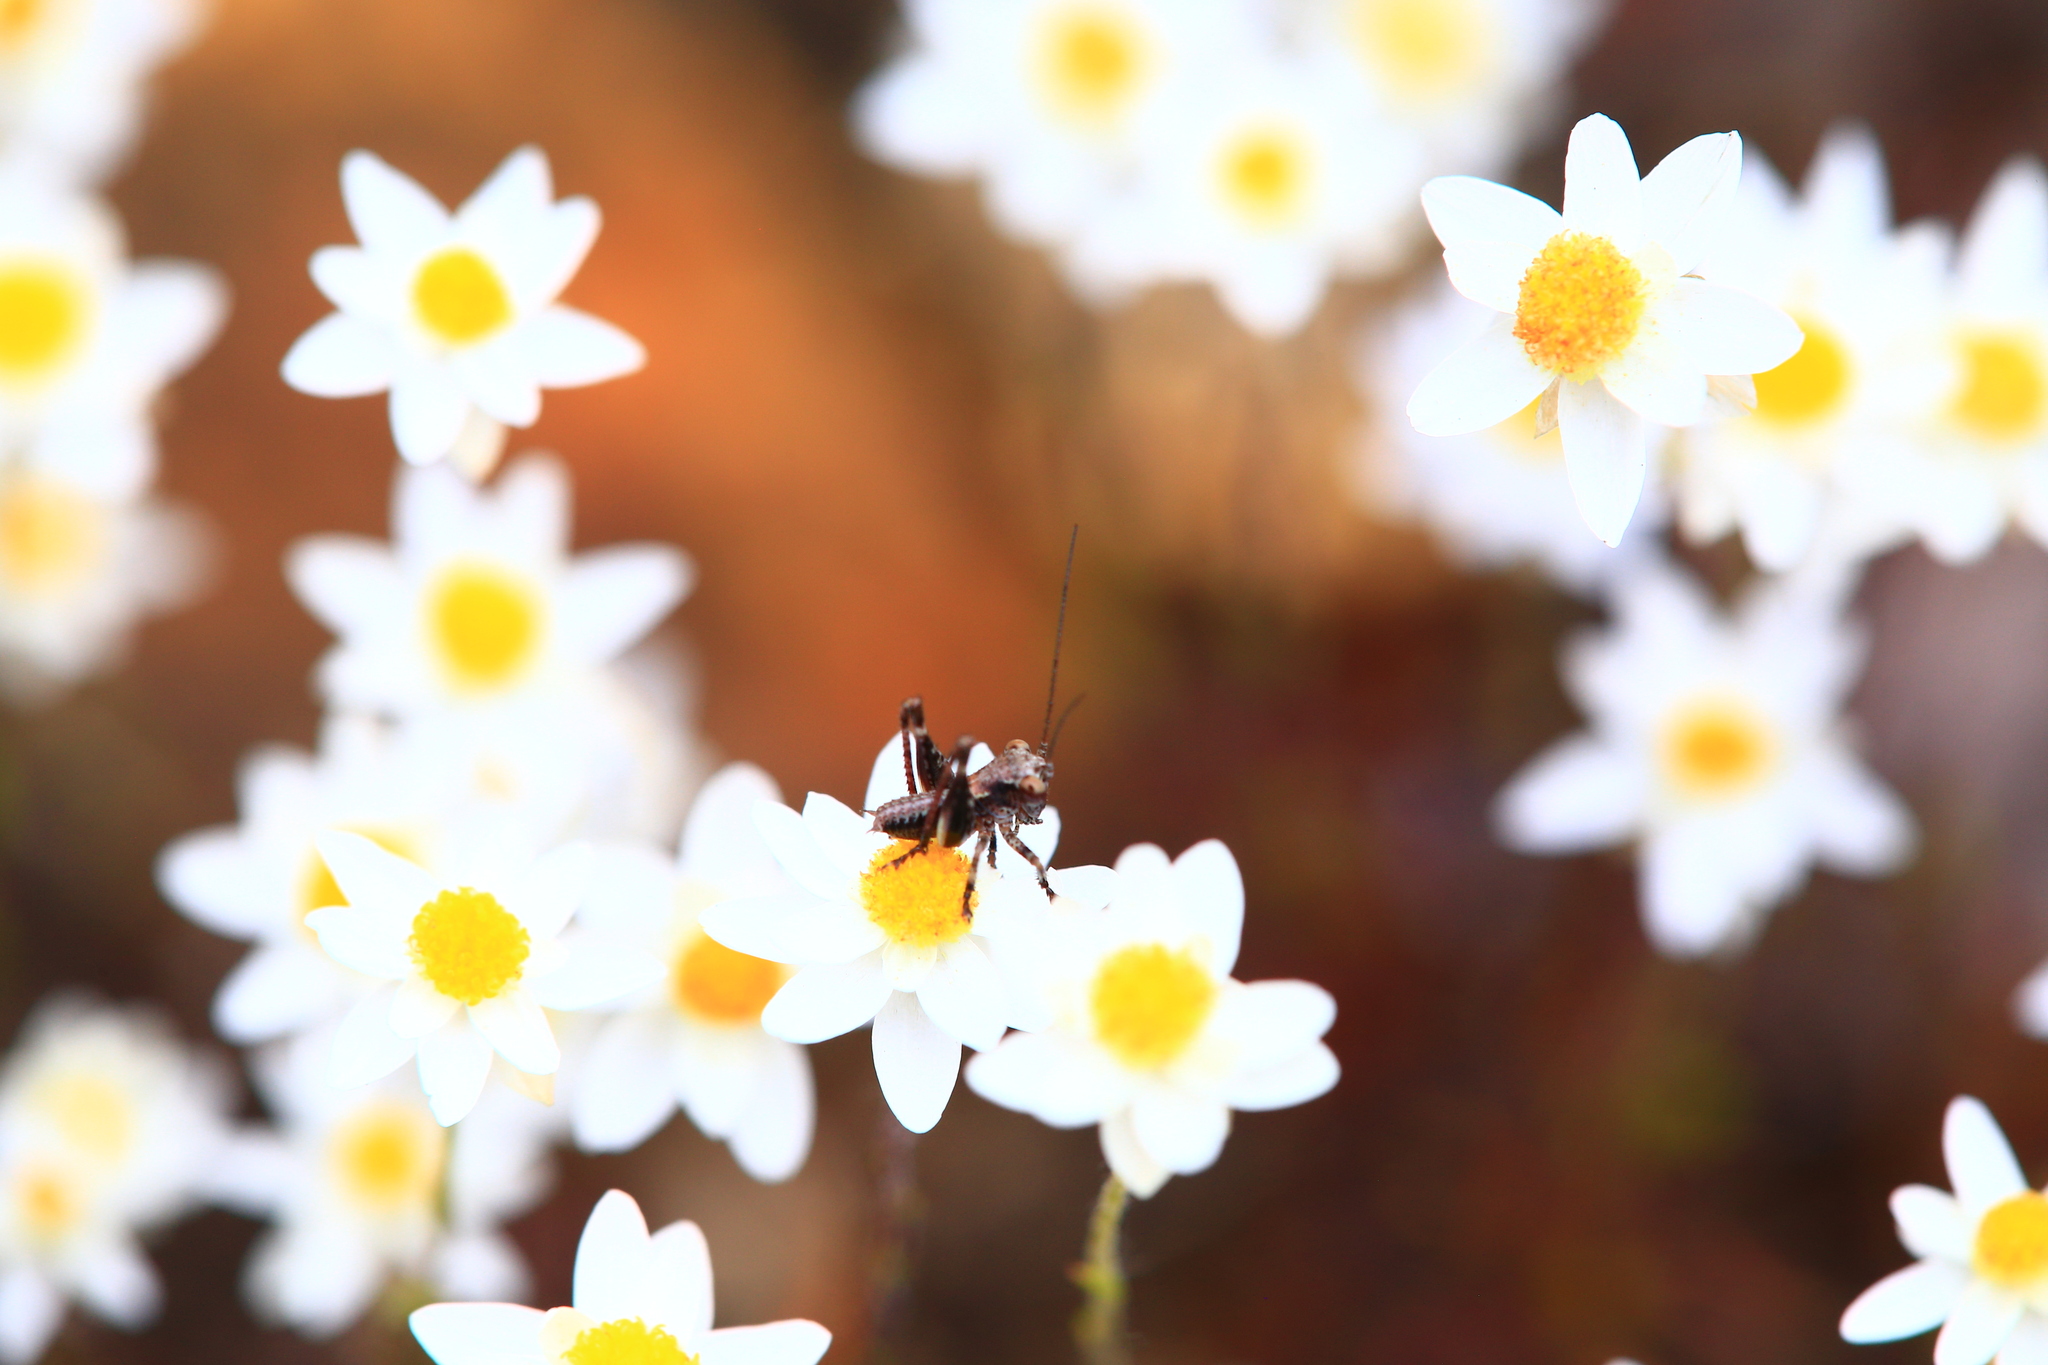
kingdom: Animalia
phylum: Arthropoda
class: Insecta
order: Orthoptera
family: Tettigoniidae
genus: Oligodectoides
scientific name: Oligodectoides tindalei
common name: Tindale's shield-back
